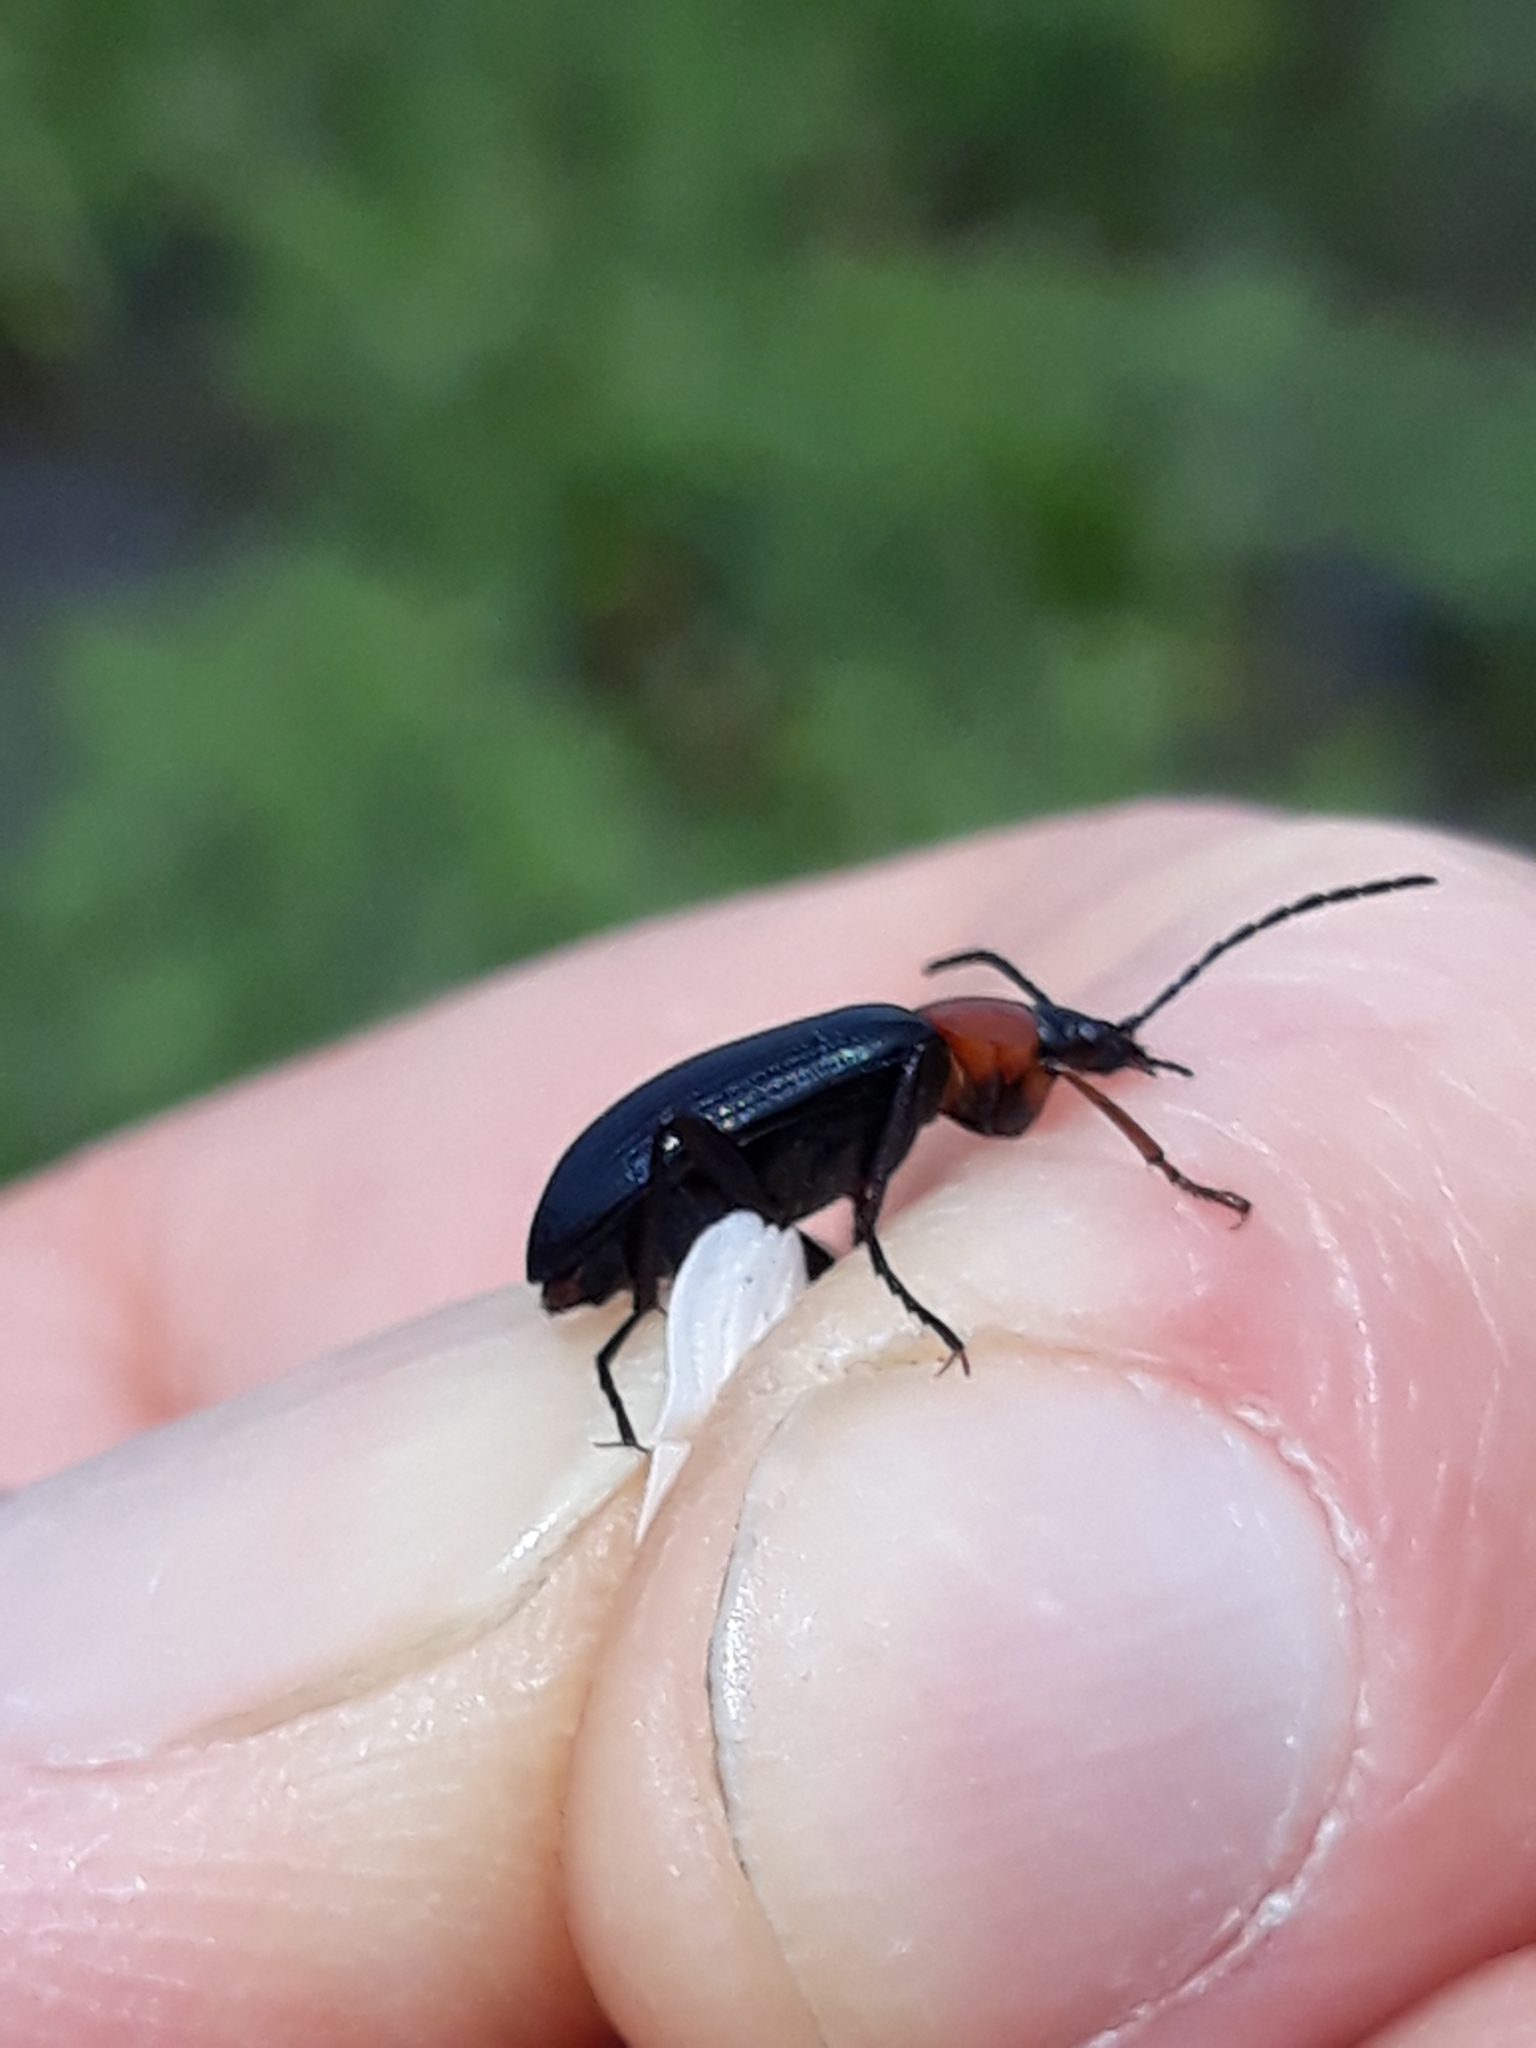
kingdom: Animalia
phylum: Arthropoda
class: Insecta
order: Coleoptera
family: Tenebrionidae
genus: Heliotaurus
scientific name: Heliotaurus ruficollis
